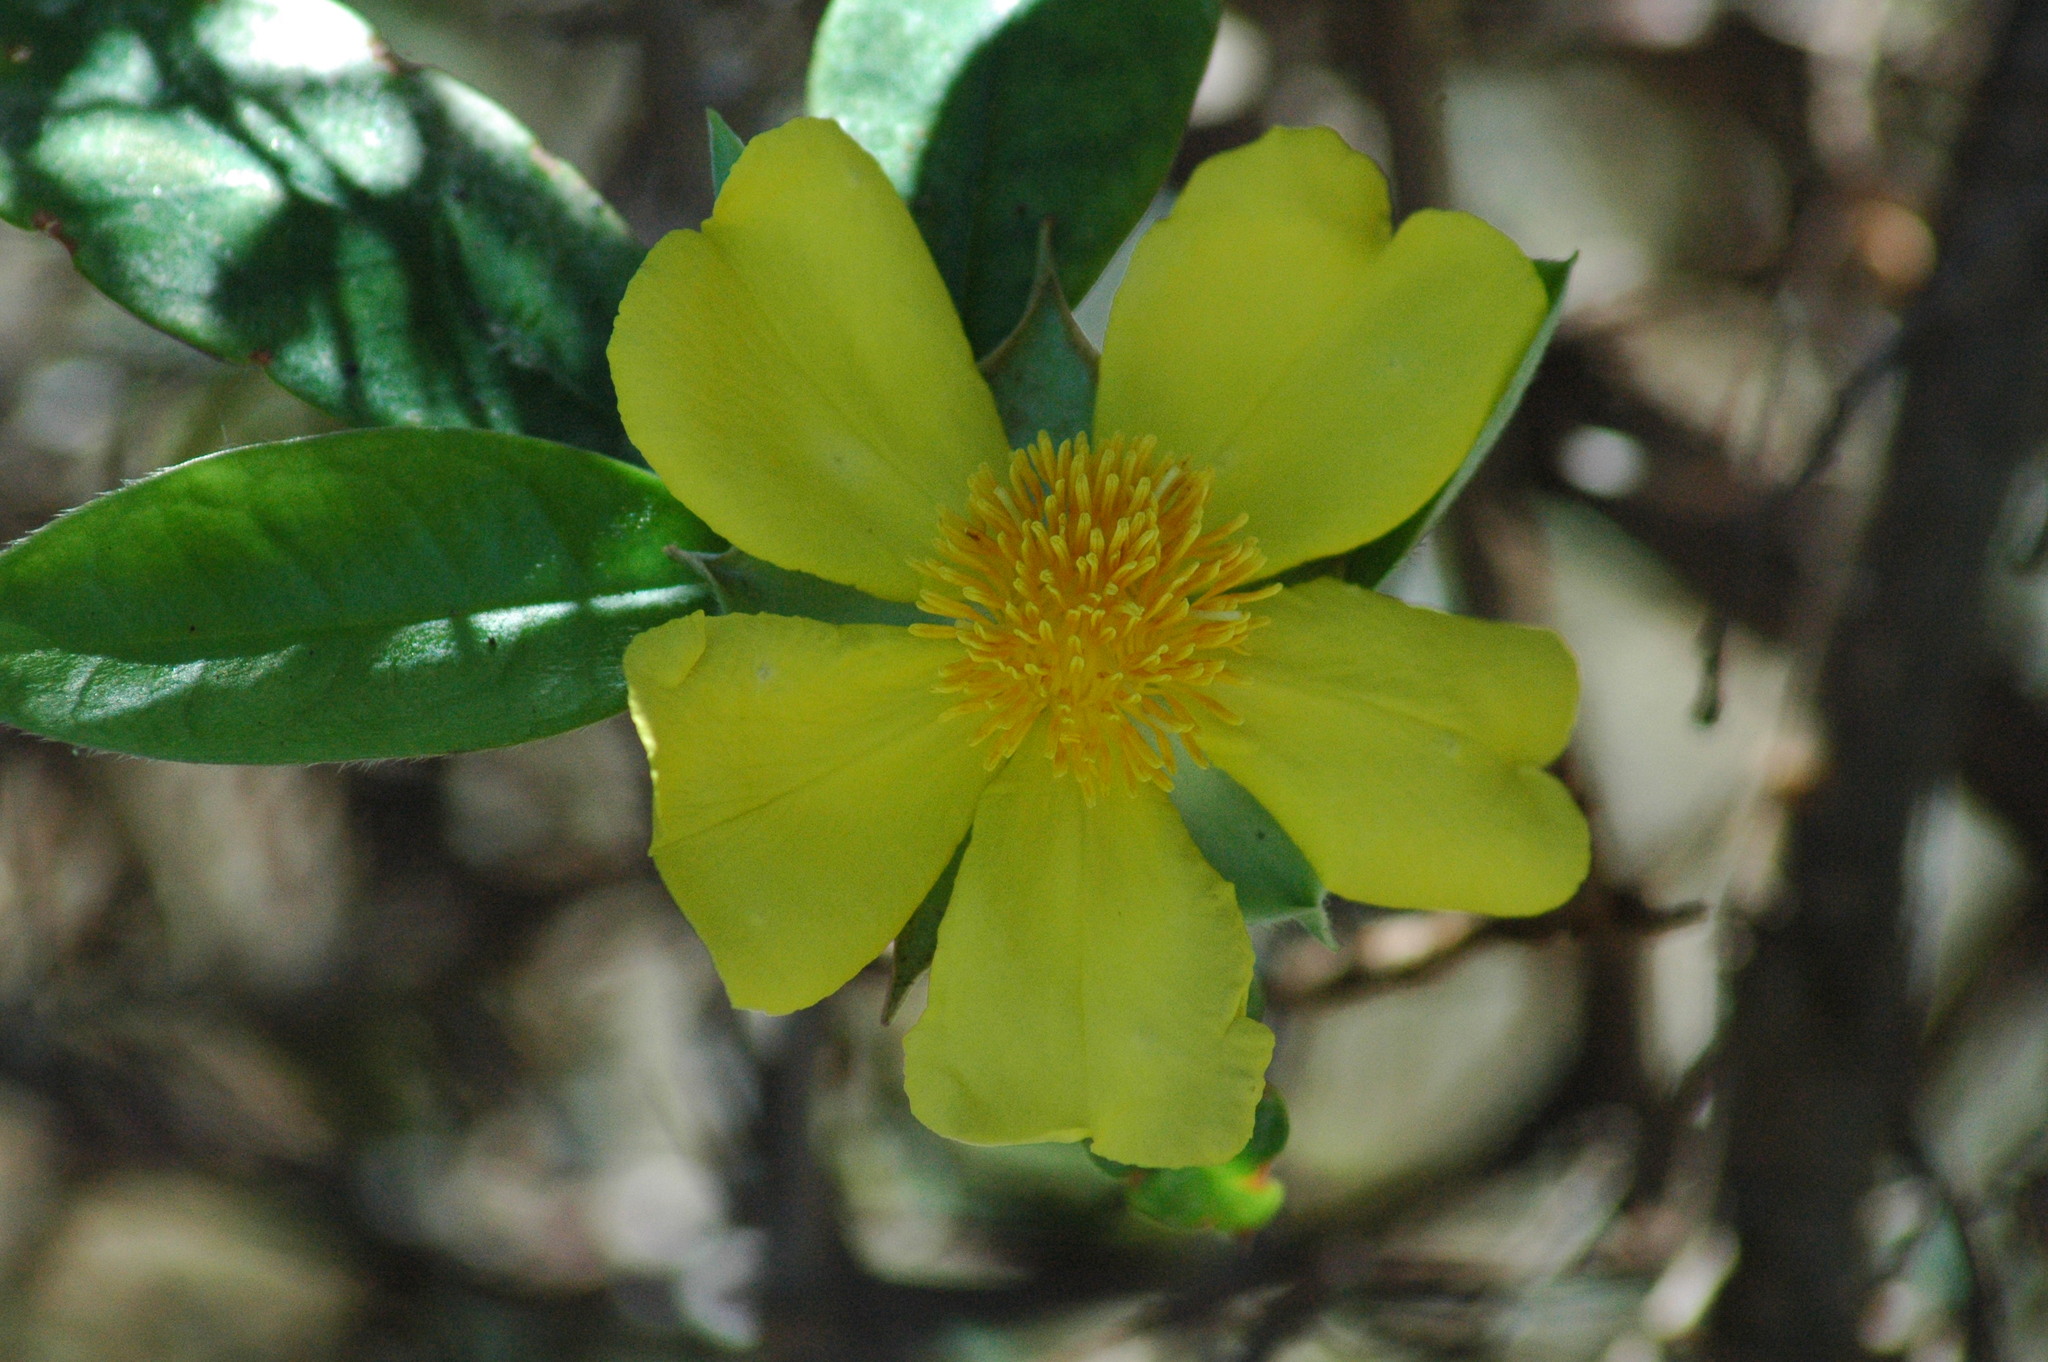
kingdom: Plantae
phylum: Tracheophyta
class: Magnoliopsida
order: Dilleniales
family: Dilleniaceae
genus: Hibbertia
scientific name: Hibbertia scandens
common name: Climbing guinea-flower
